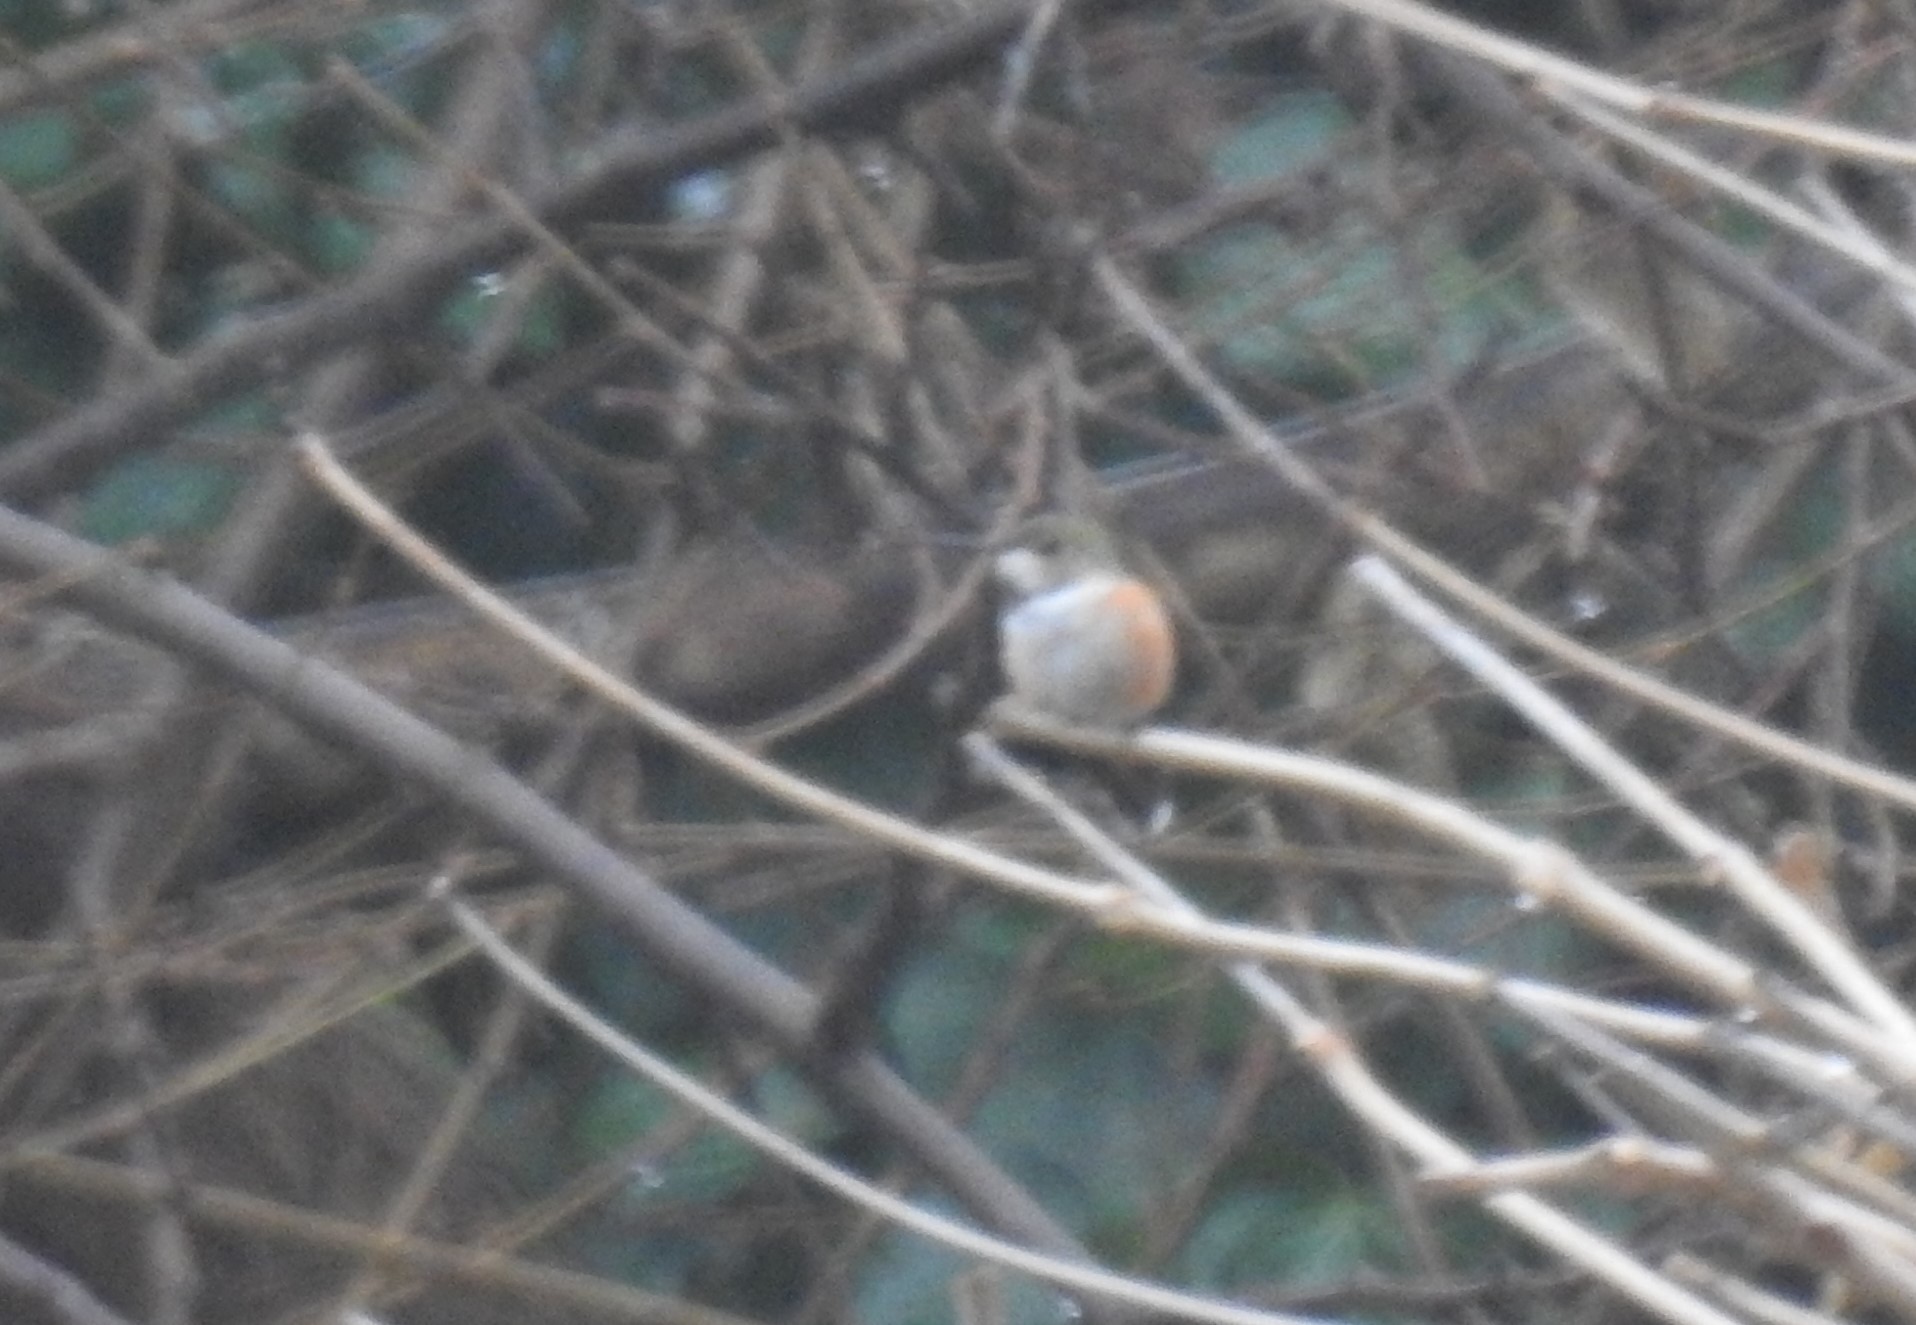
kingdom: Animalia
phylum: Chordata
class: Aves
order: Apodiformes
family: Trochilidae
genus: Selasphorus
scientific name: Selasphorus rufus
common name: Rufous hummingbird
